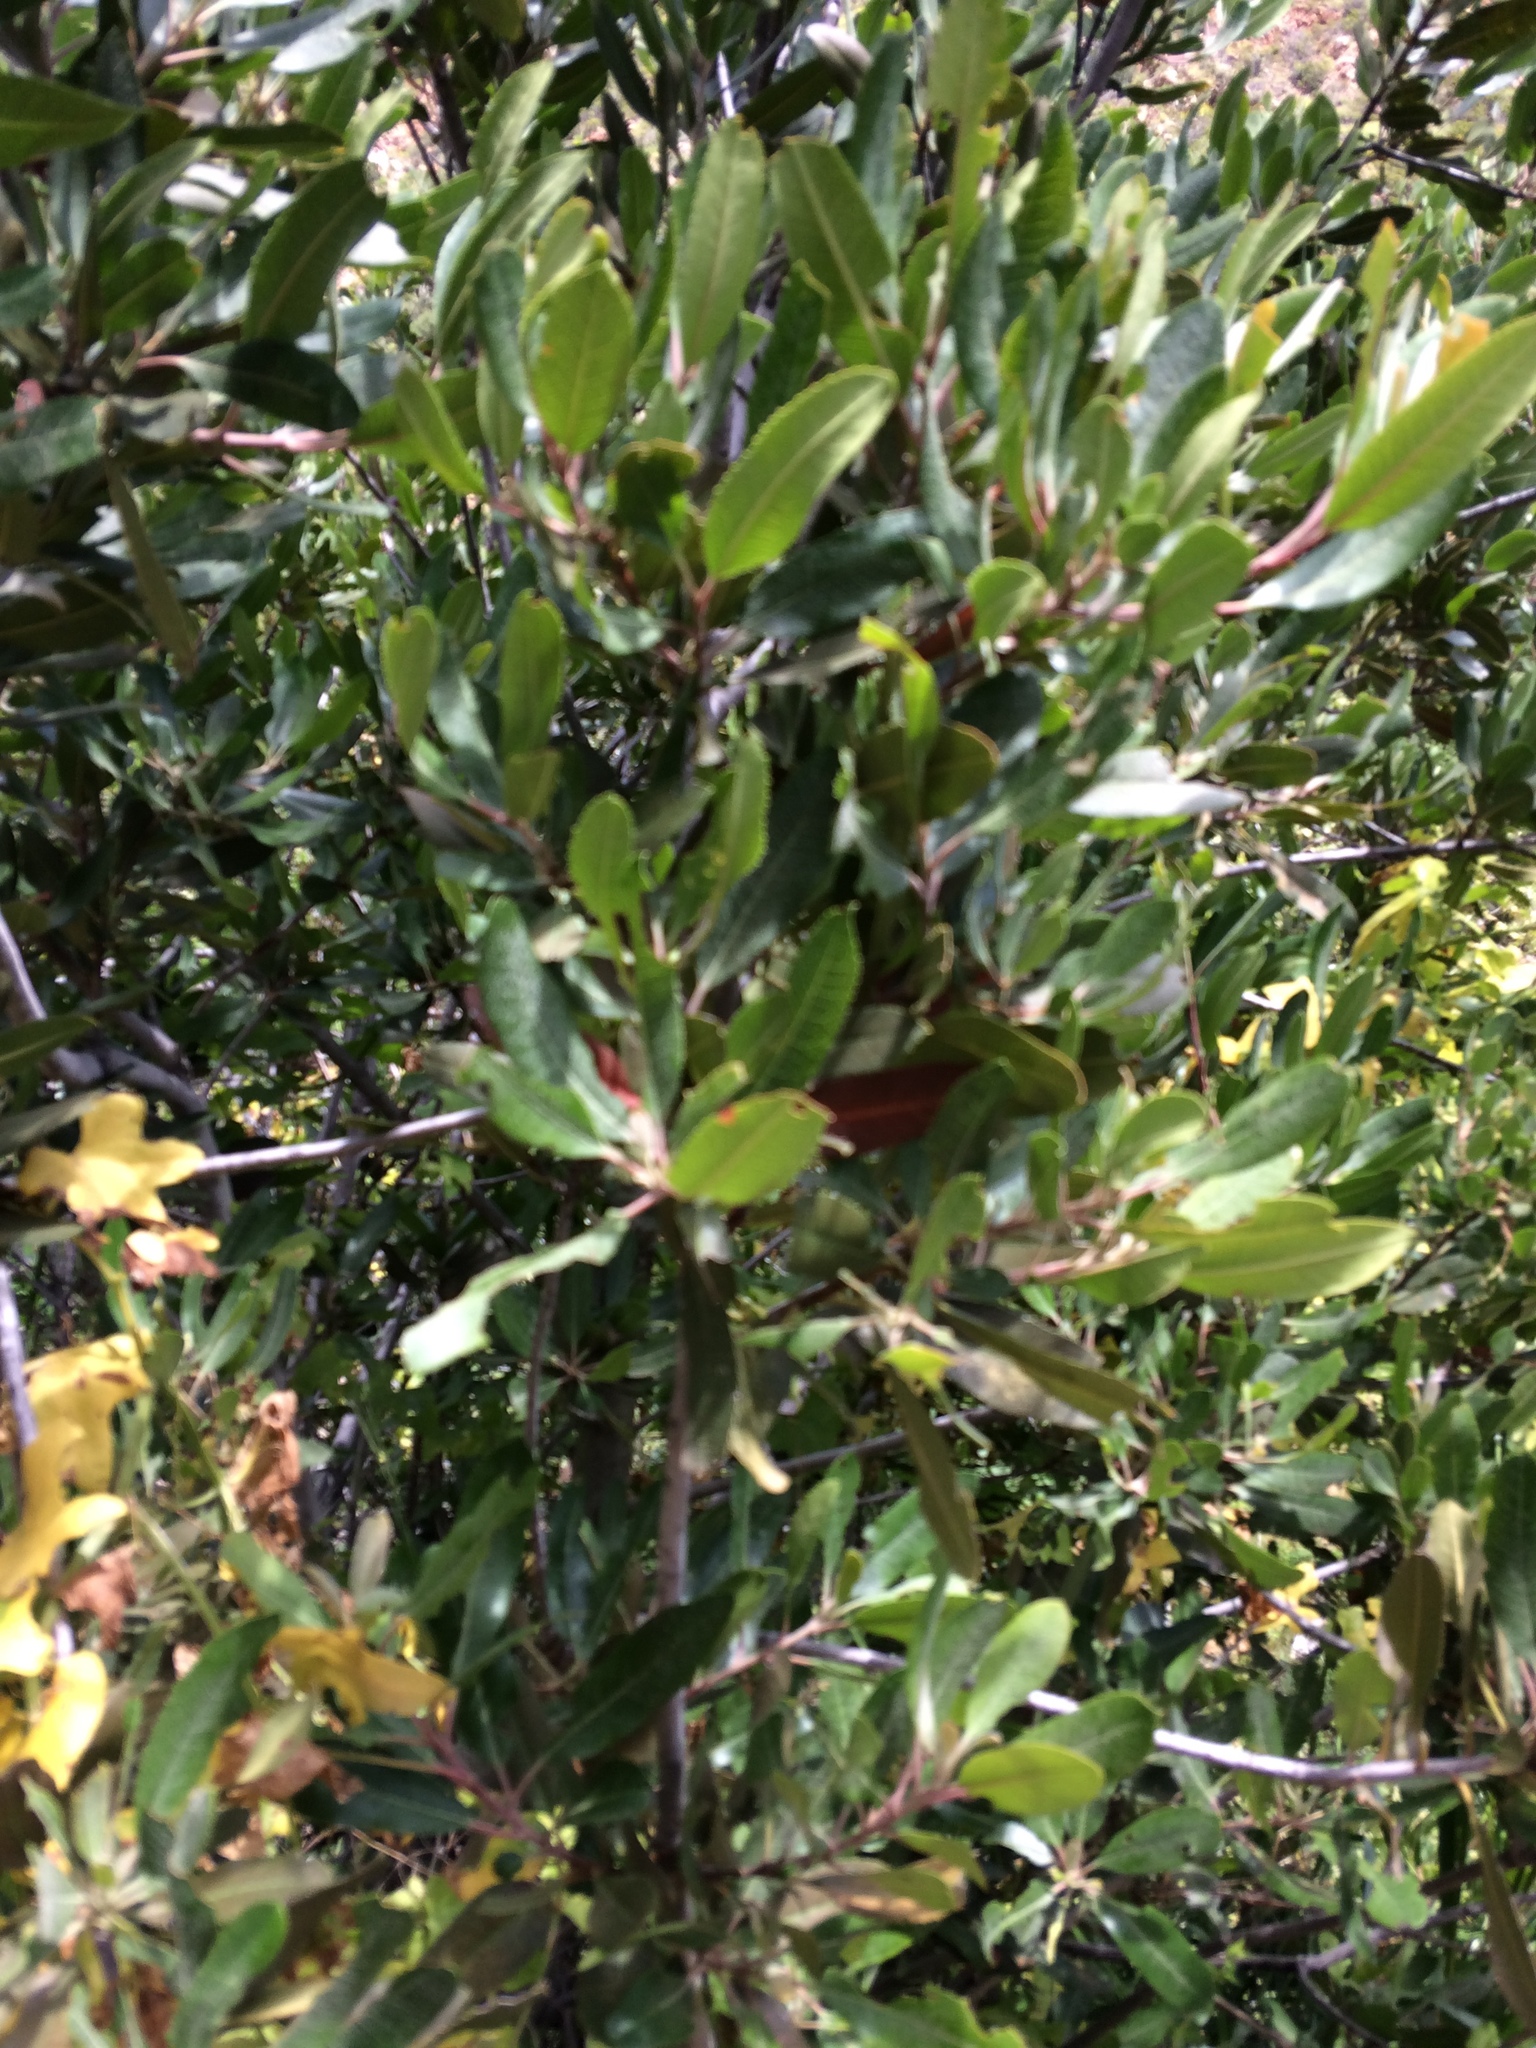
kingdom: Plantae
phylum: Tracheophyta
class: Magnoliopsida
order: Rosales
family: Rosaceae
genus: Heteromeles
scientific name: Heteromeles arbutifolia
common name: California-holly
